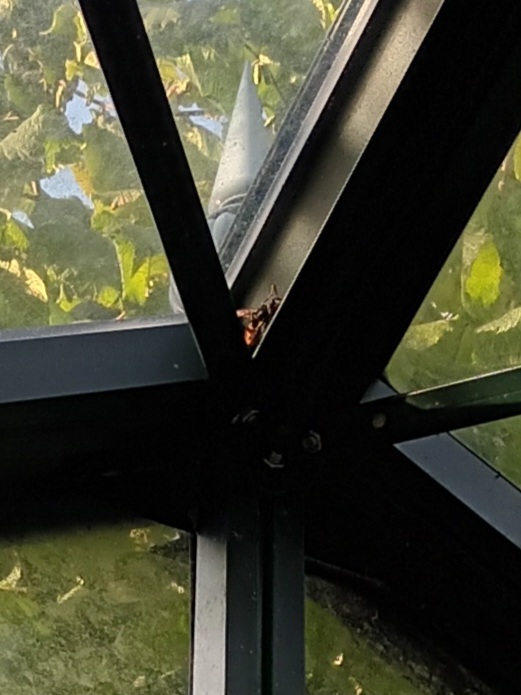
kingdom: Animalia
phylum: Arthropoda
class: Insecta
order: Hymenoptera
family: Vespidae
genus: Vespa
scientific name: Vespa velutina
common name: Asian hornet
